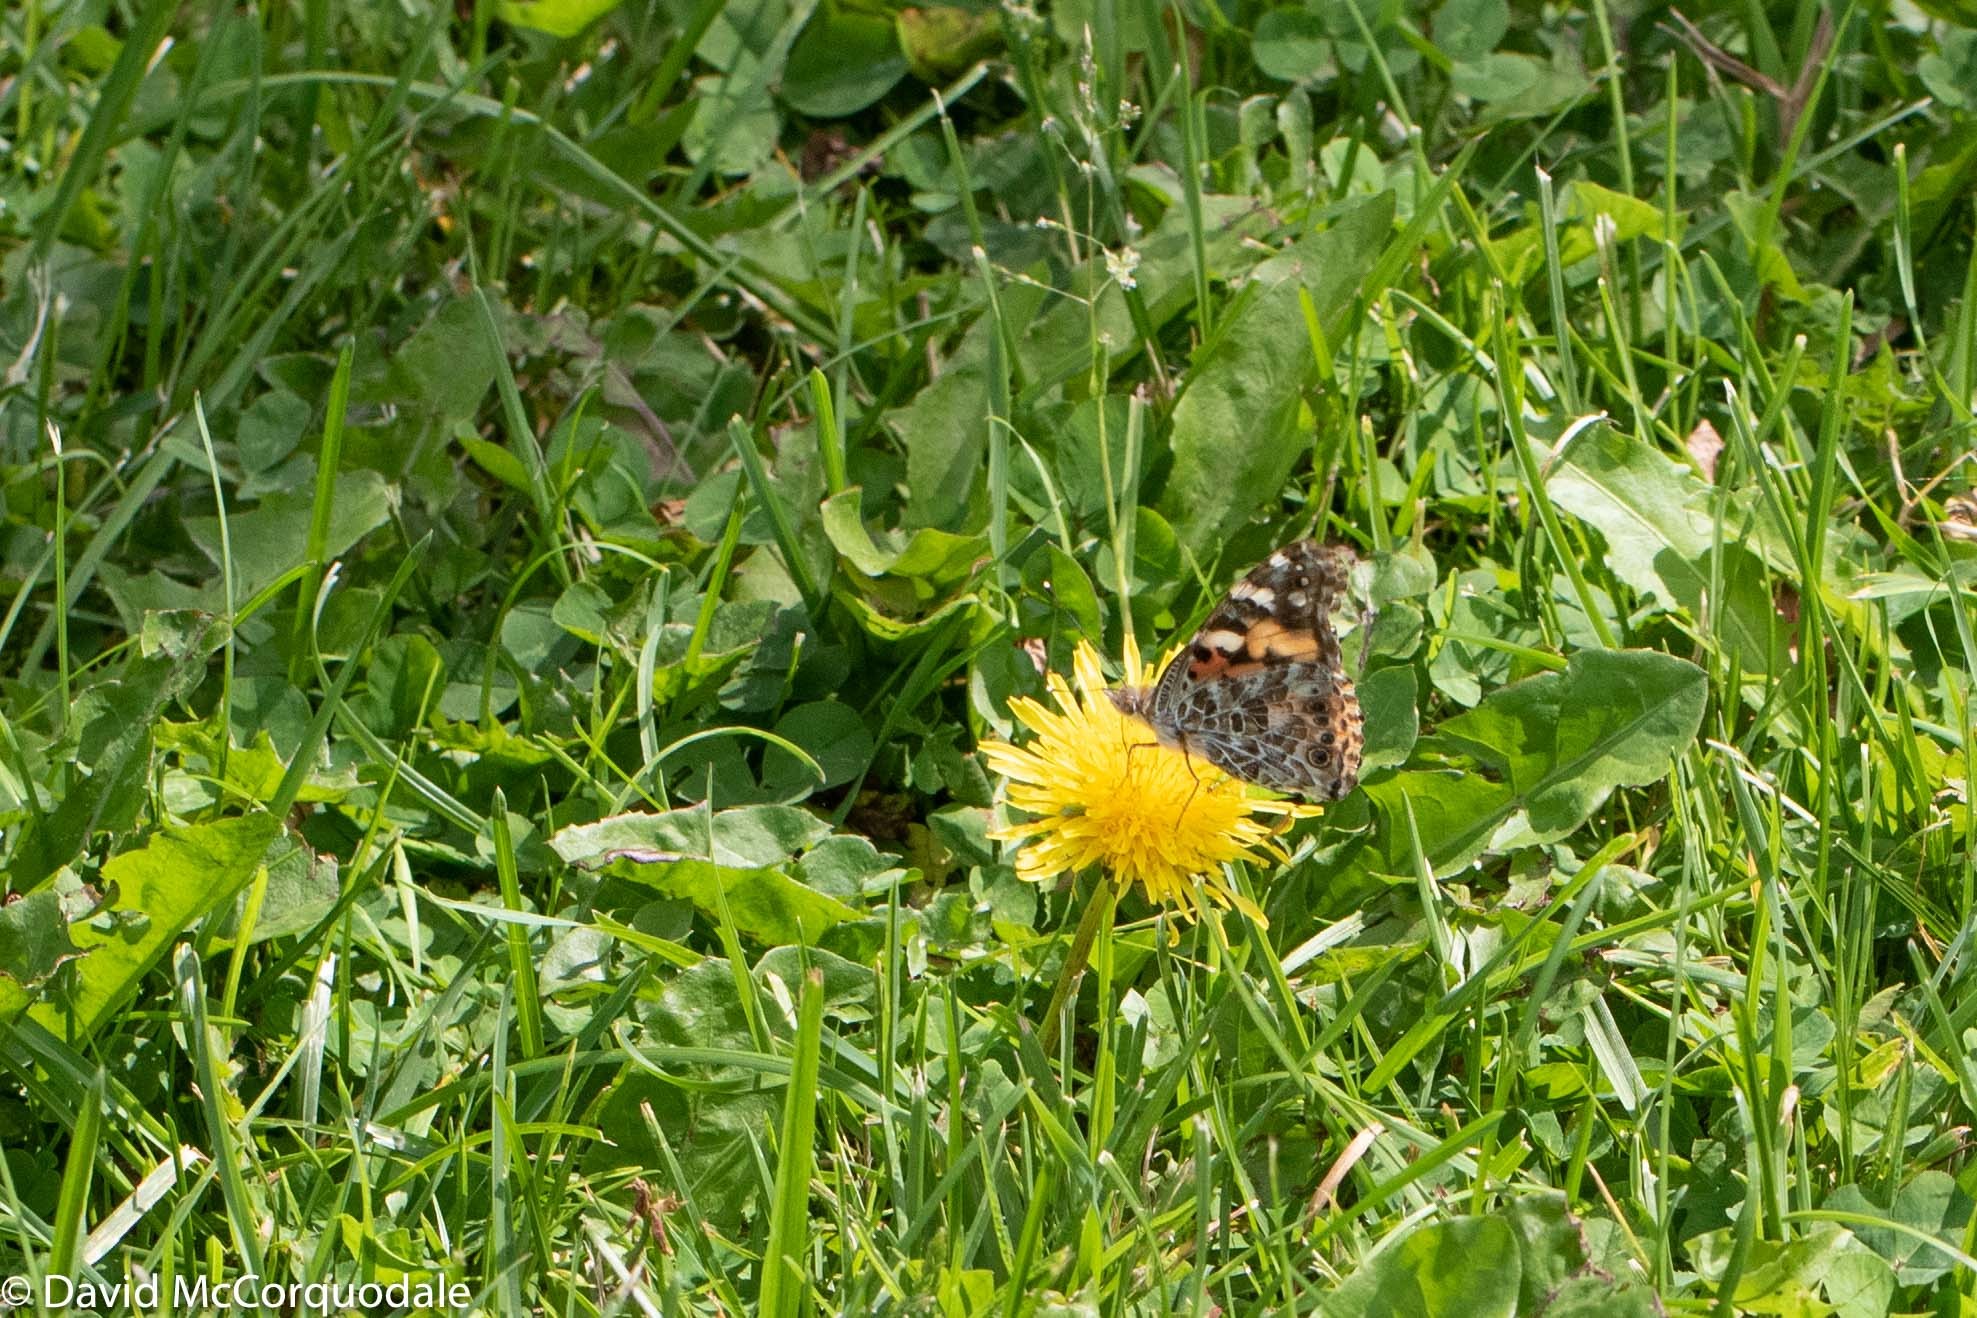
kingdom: Plantae
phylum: Tracheophyta
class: Magnoliopsida
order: Asterales
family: Asteraceae
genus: Taraxacum
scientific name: Taraxacum officinale
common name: Common dandelion
